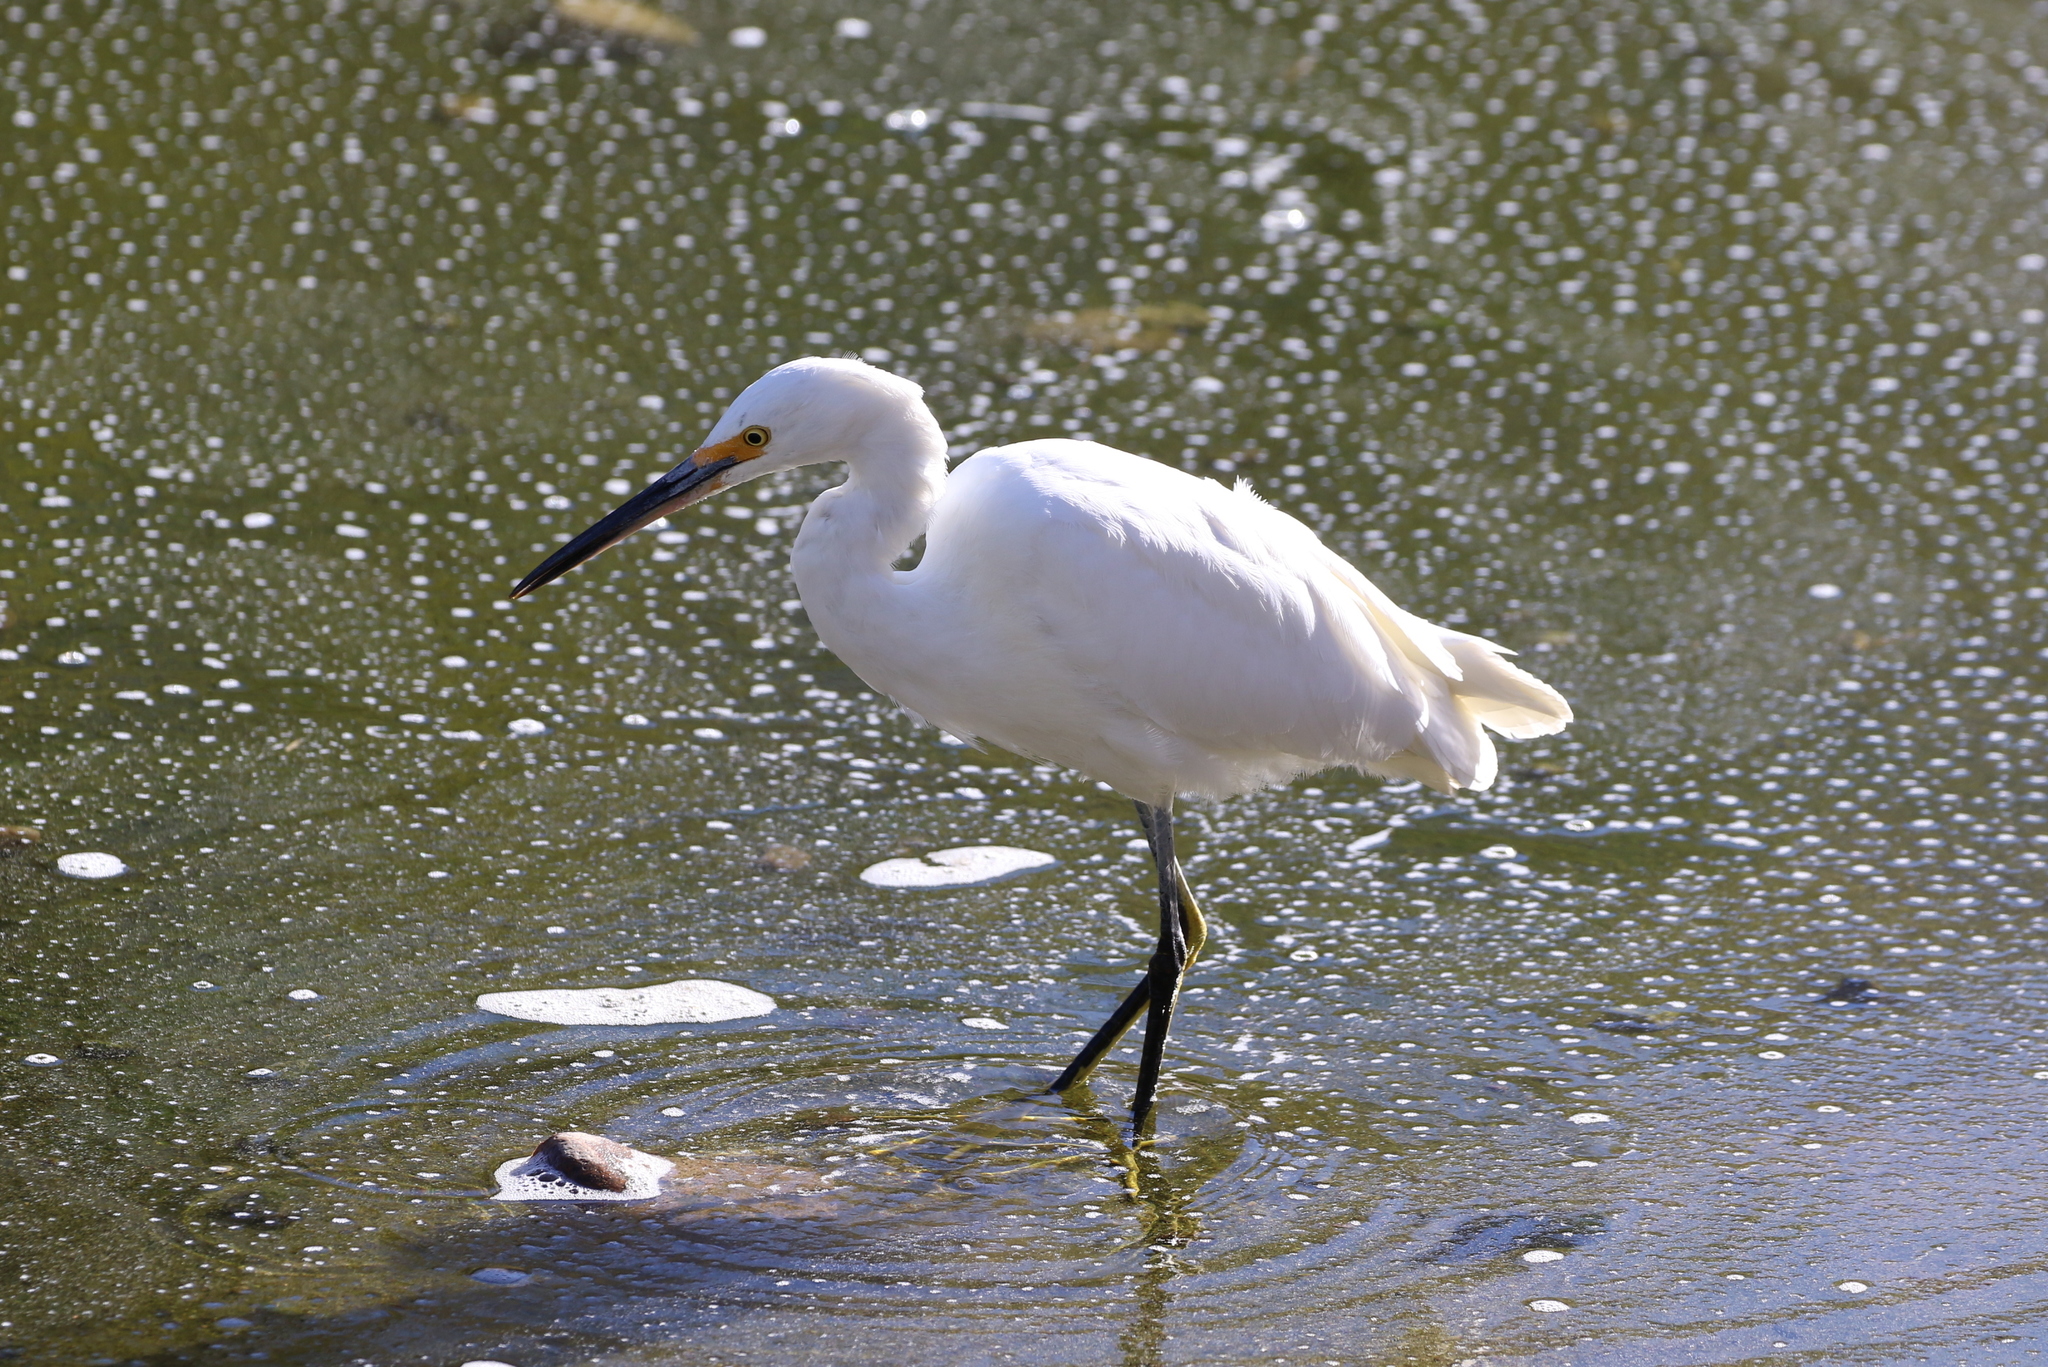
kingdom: Animalia
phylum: Chordata
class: Aves
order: Pelecaniformes
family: Ardeidae
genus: Egretta
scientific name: Egretta thula
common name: Snowy egret
